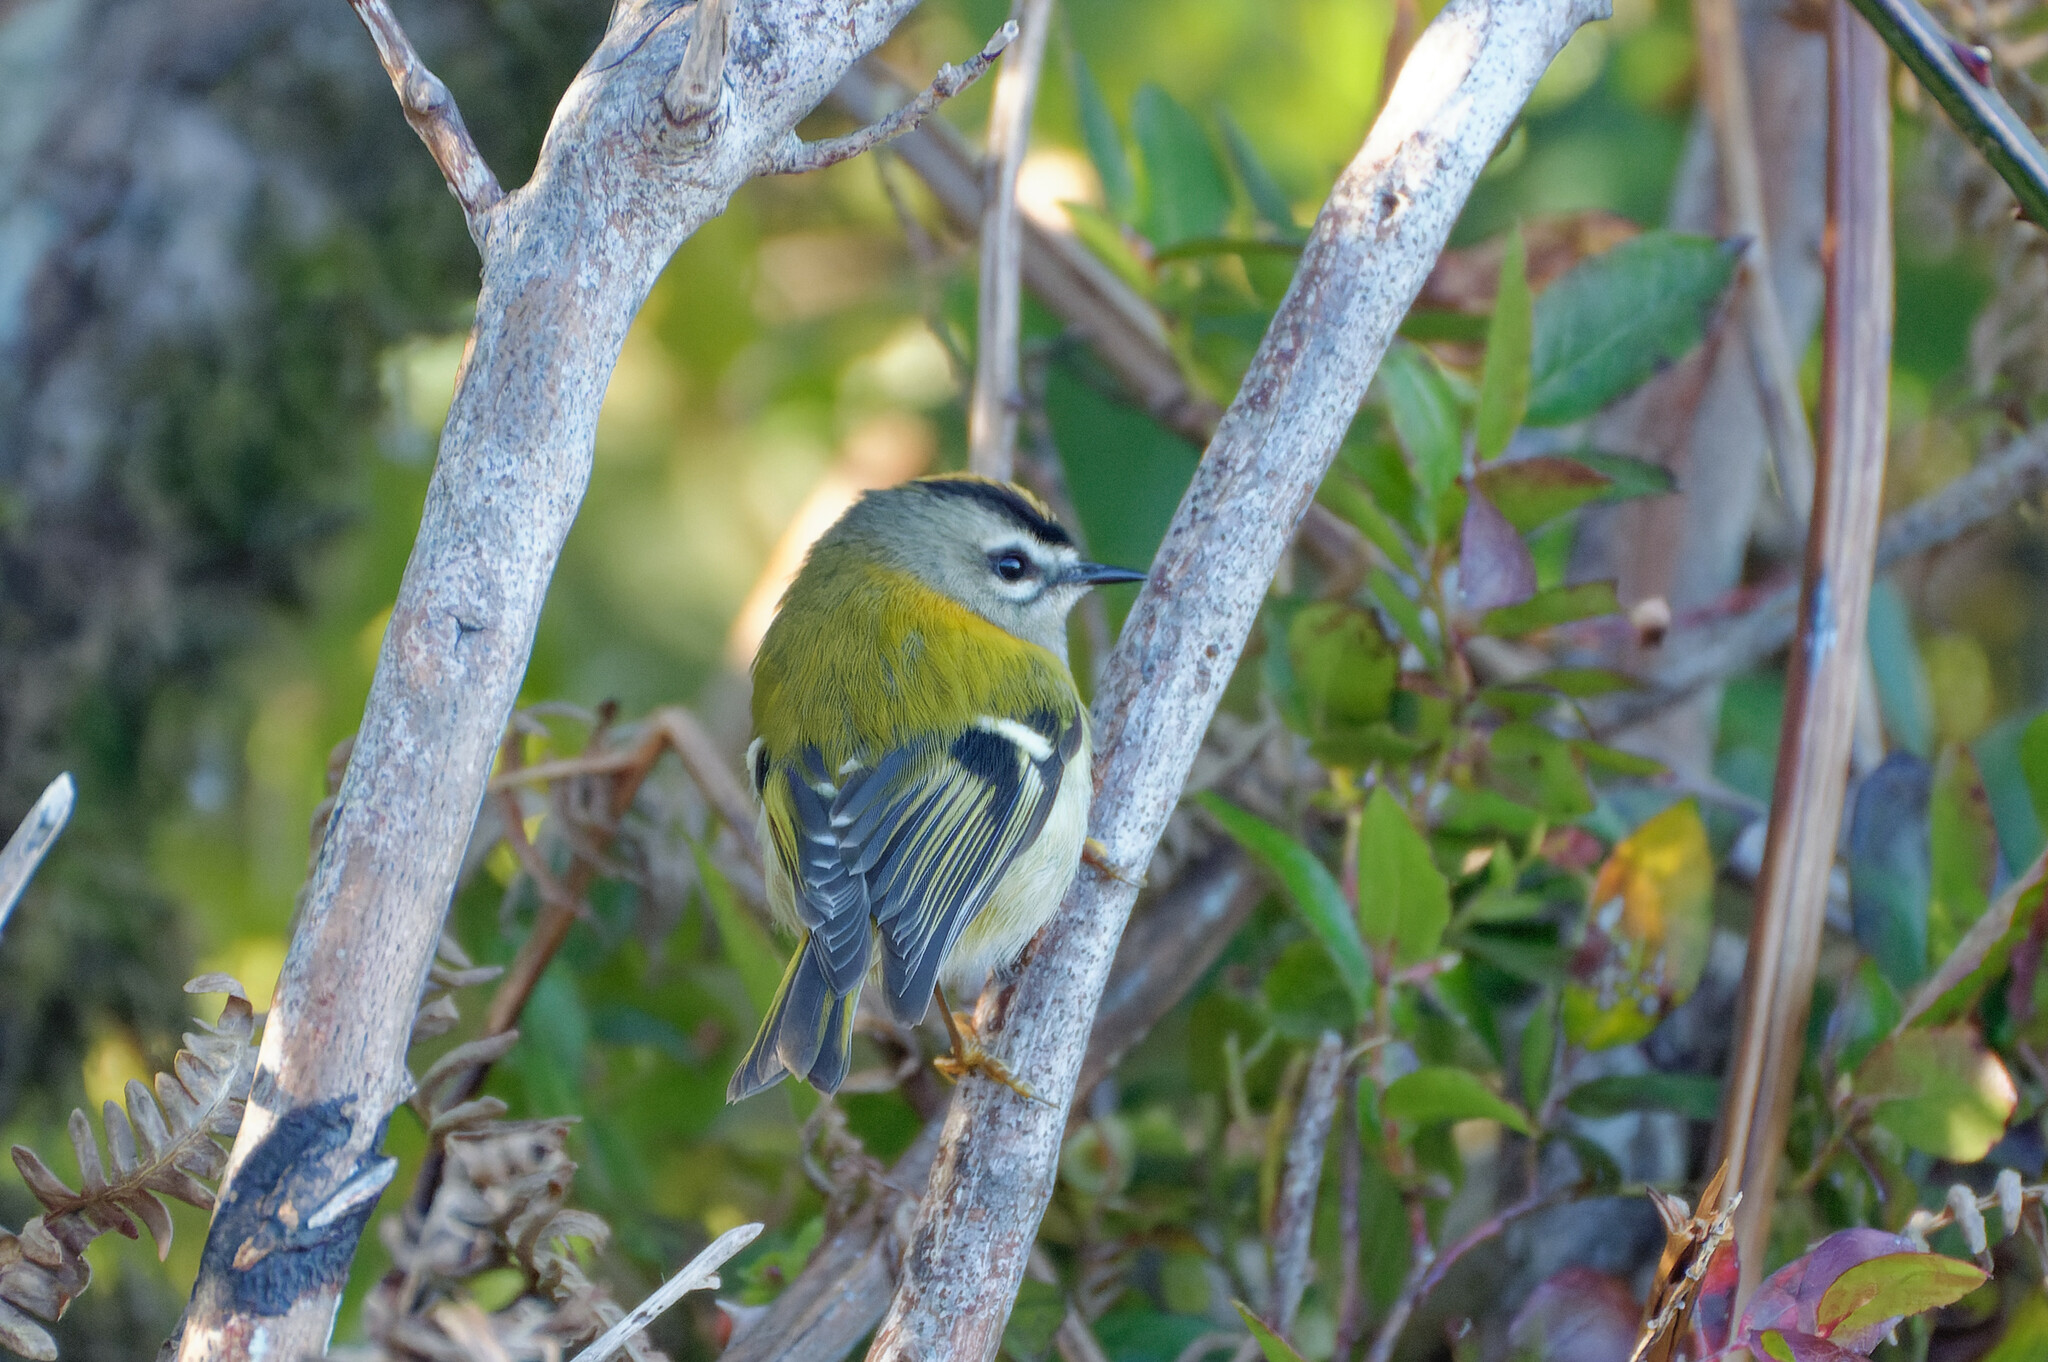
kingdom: Animalia
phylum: Chordata
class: Aves
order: Passeriformes
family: Regulidae
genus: Regulus
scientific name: Regulus madeirensis
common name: Madeira firecrest
